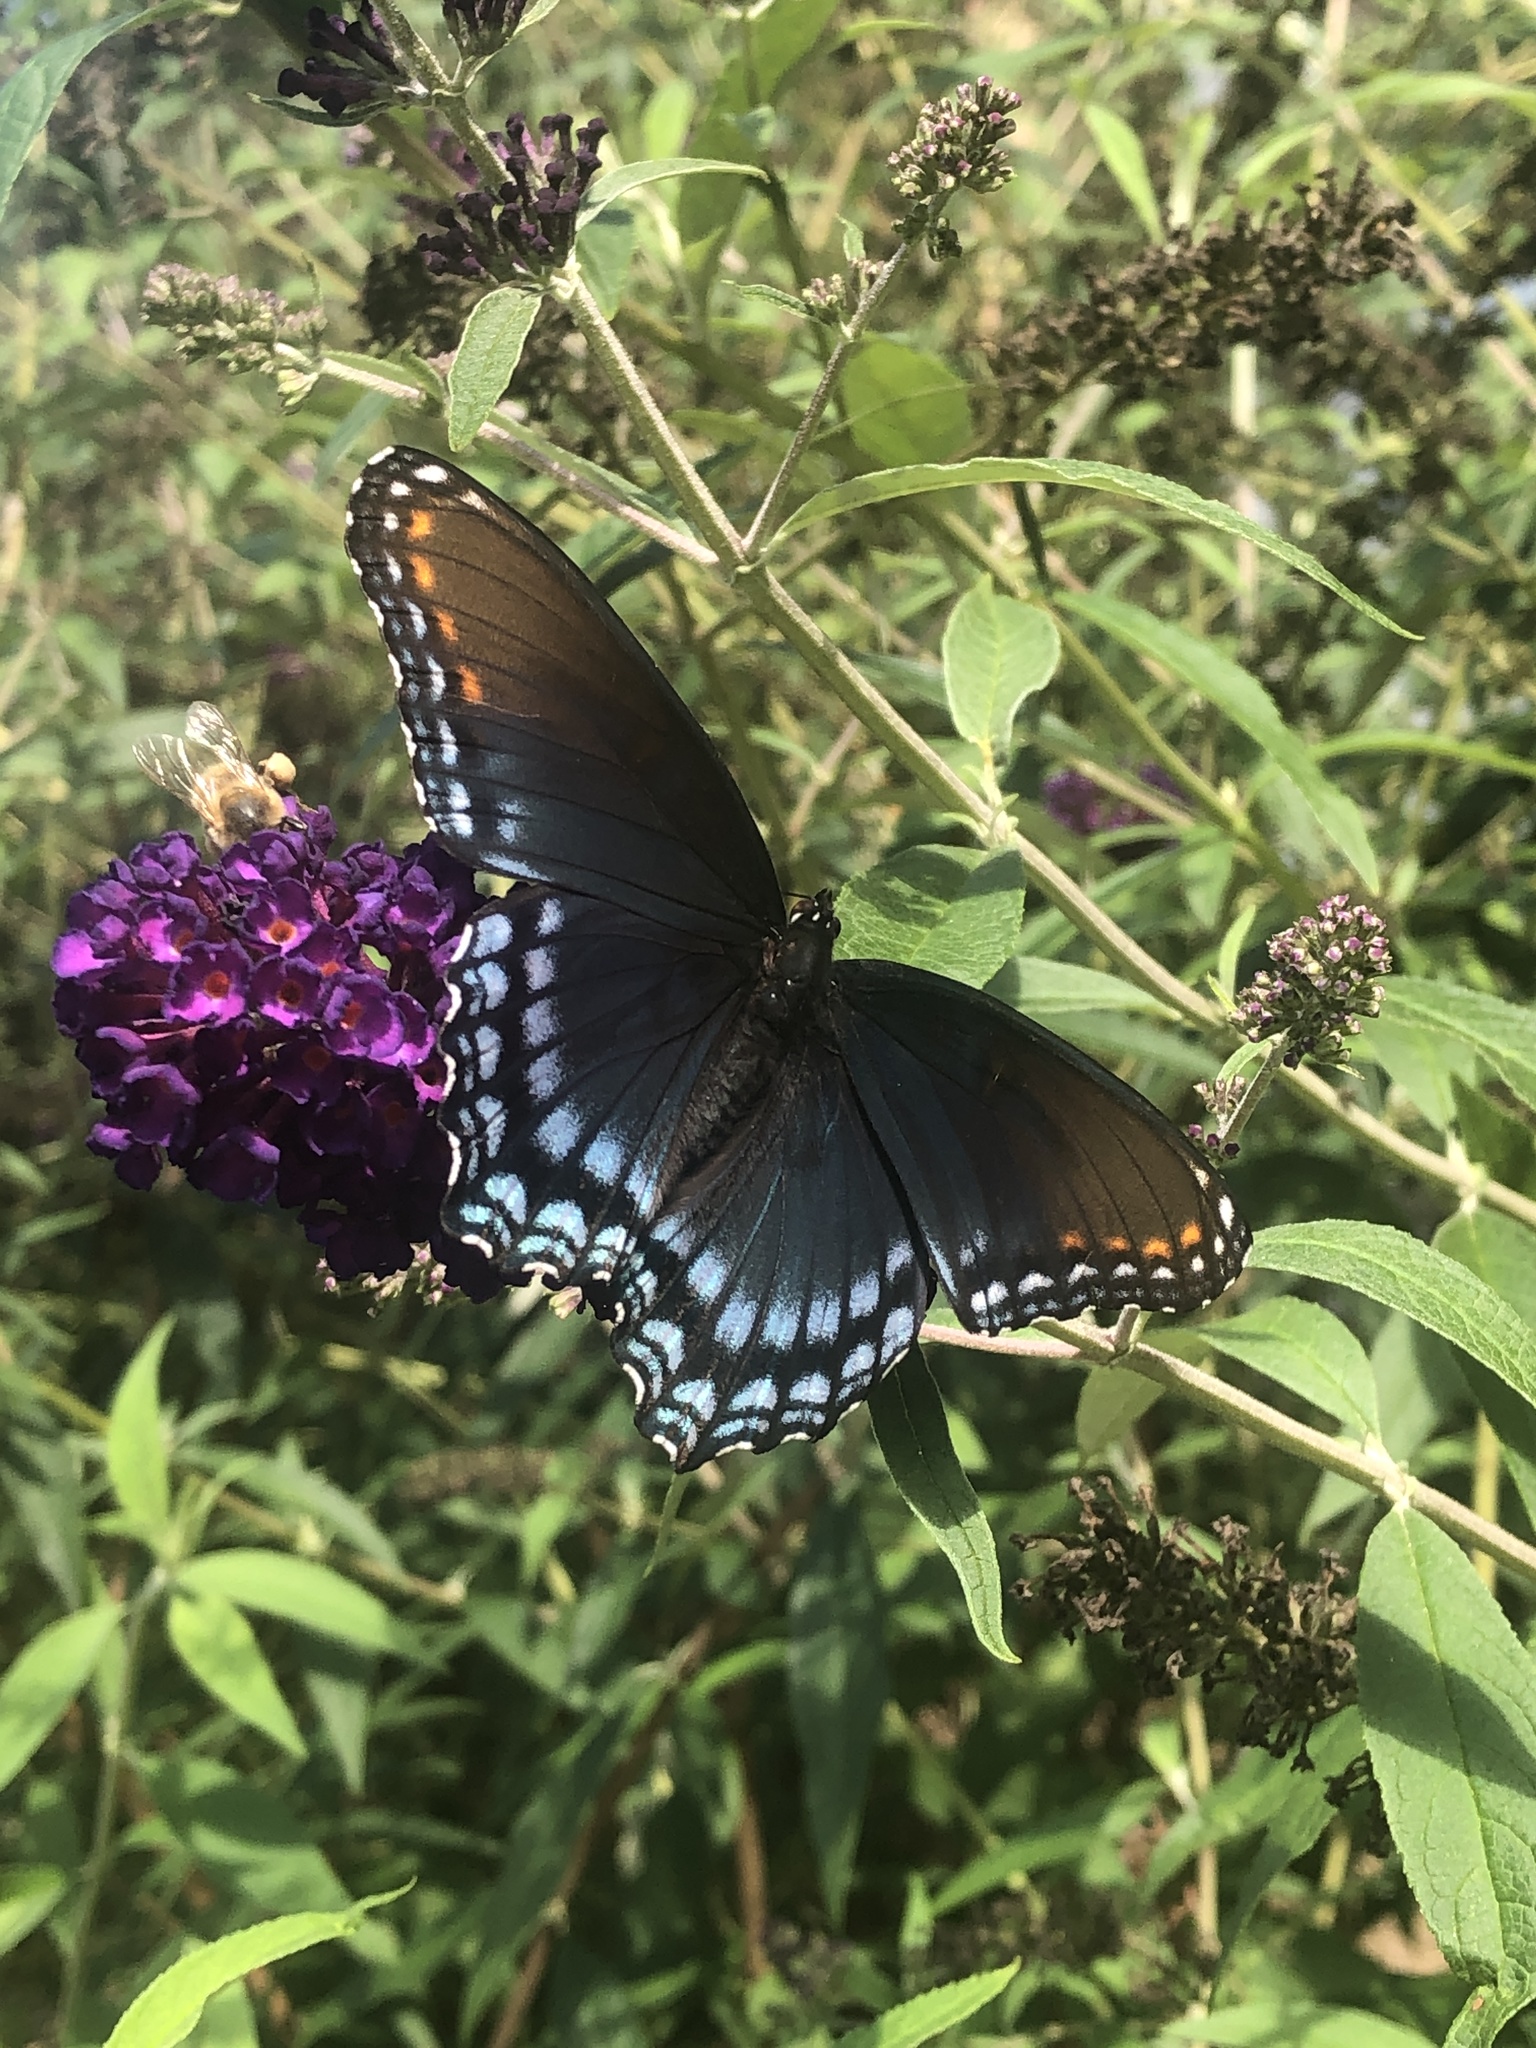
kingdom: Animalia
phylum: Arthropoda
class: Insecta
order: Lepidoptera
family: Nymphalidae
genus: Limenitis
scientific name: Limenitis astyanax
